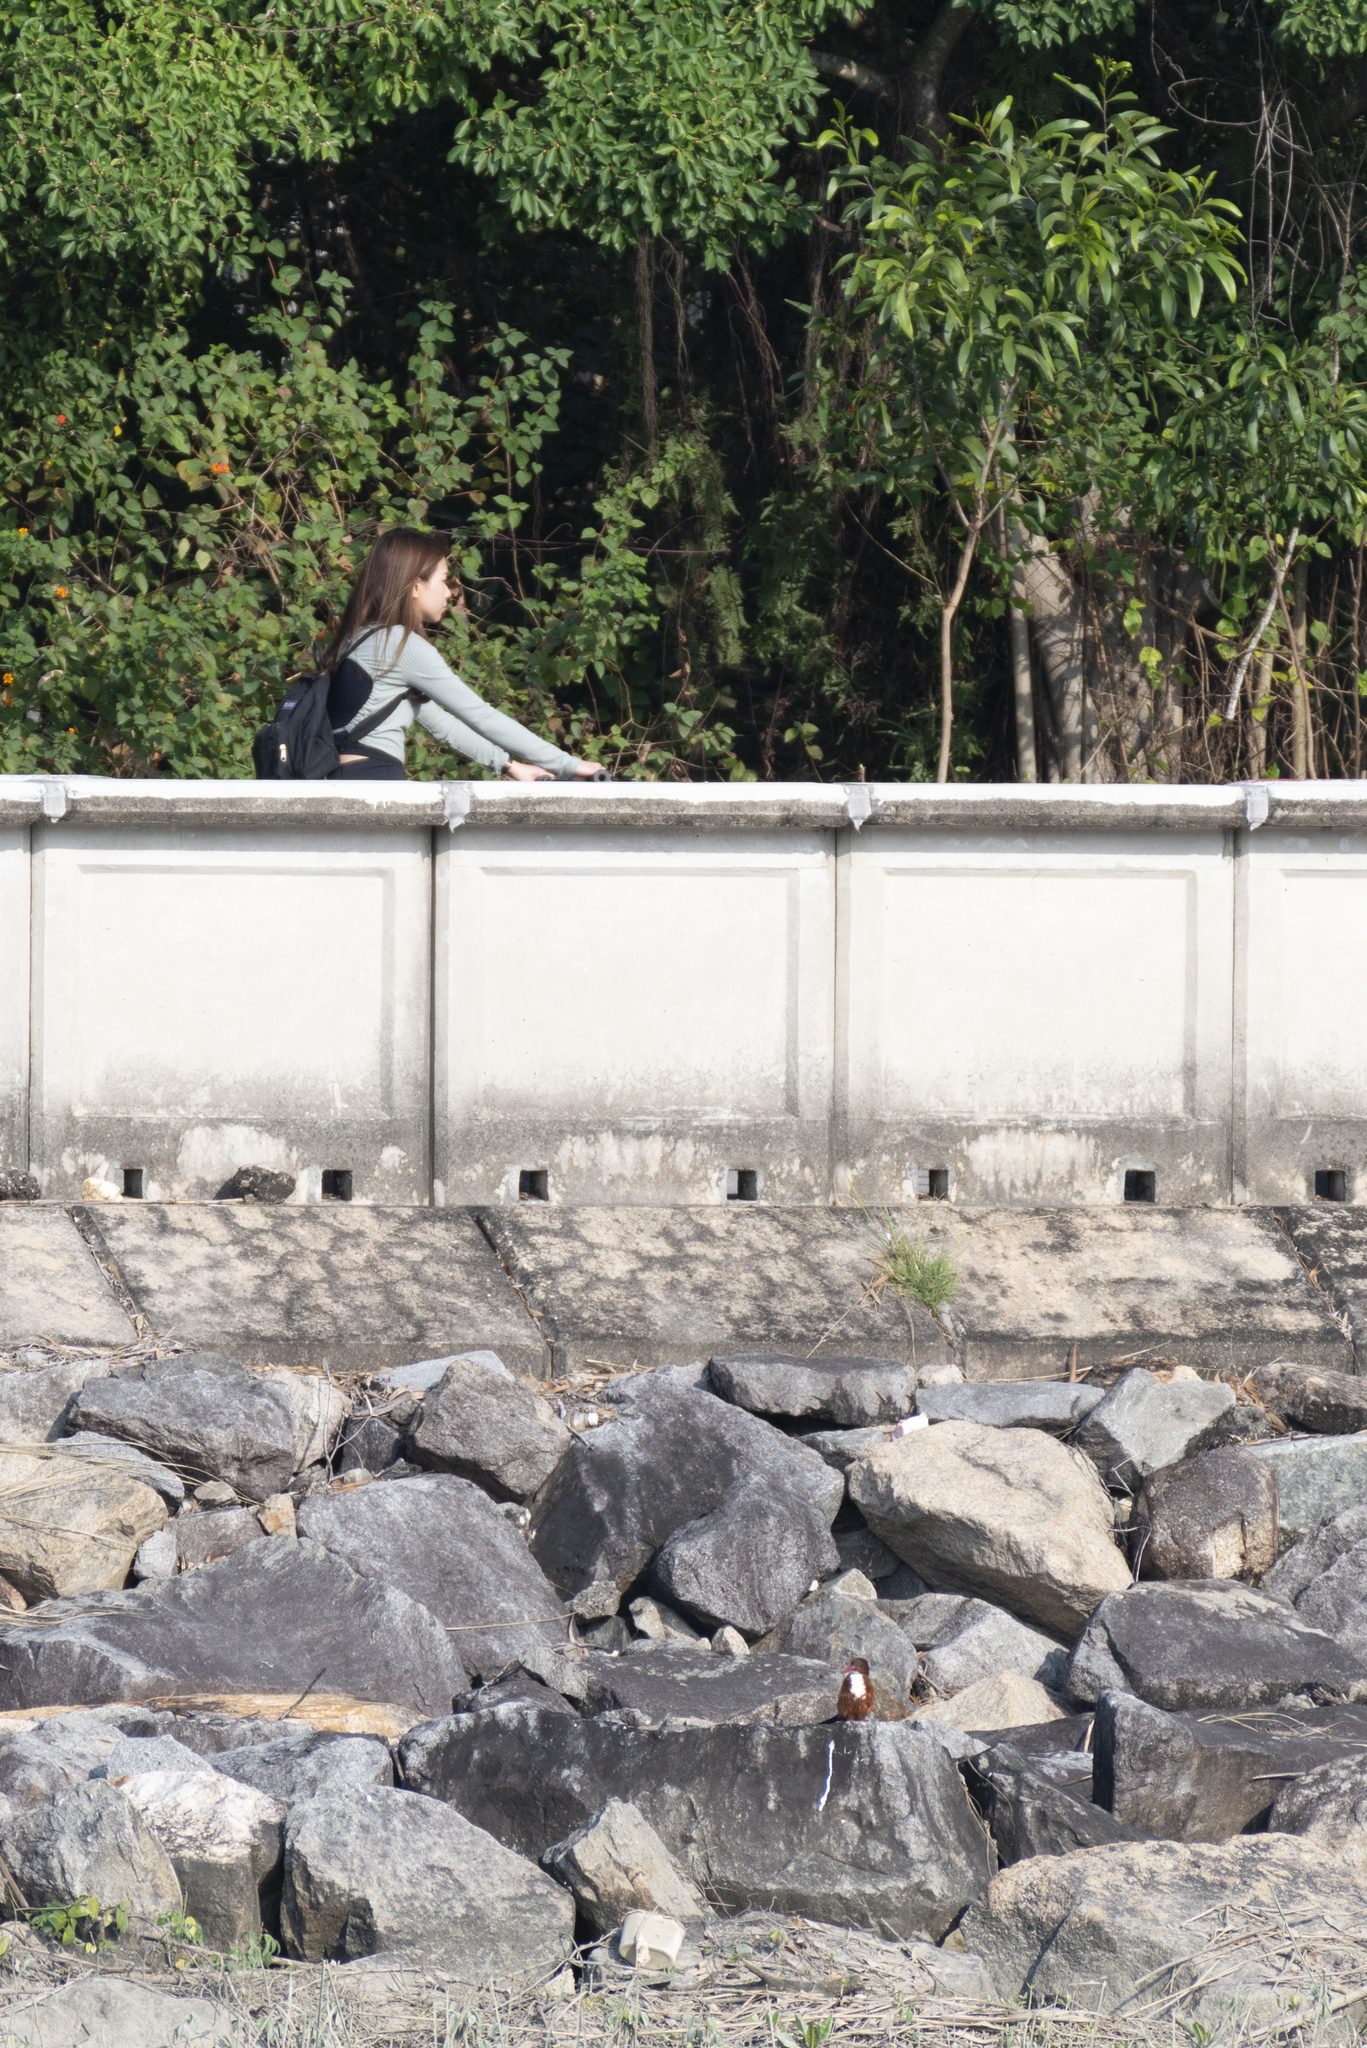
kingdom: Animalia
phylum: Chordata
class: Aves
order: Coraciiformes
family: Alcedinidae
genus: Halcyon
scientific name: Halcyon smyrnensis
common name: White-throated kingfisher
